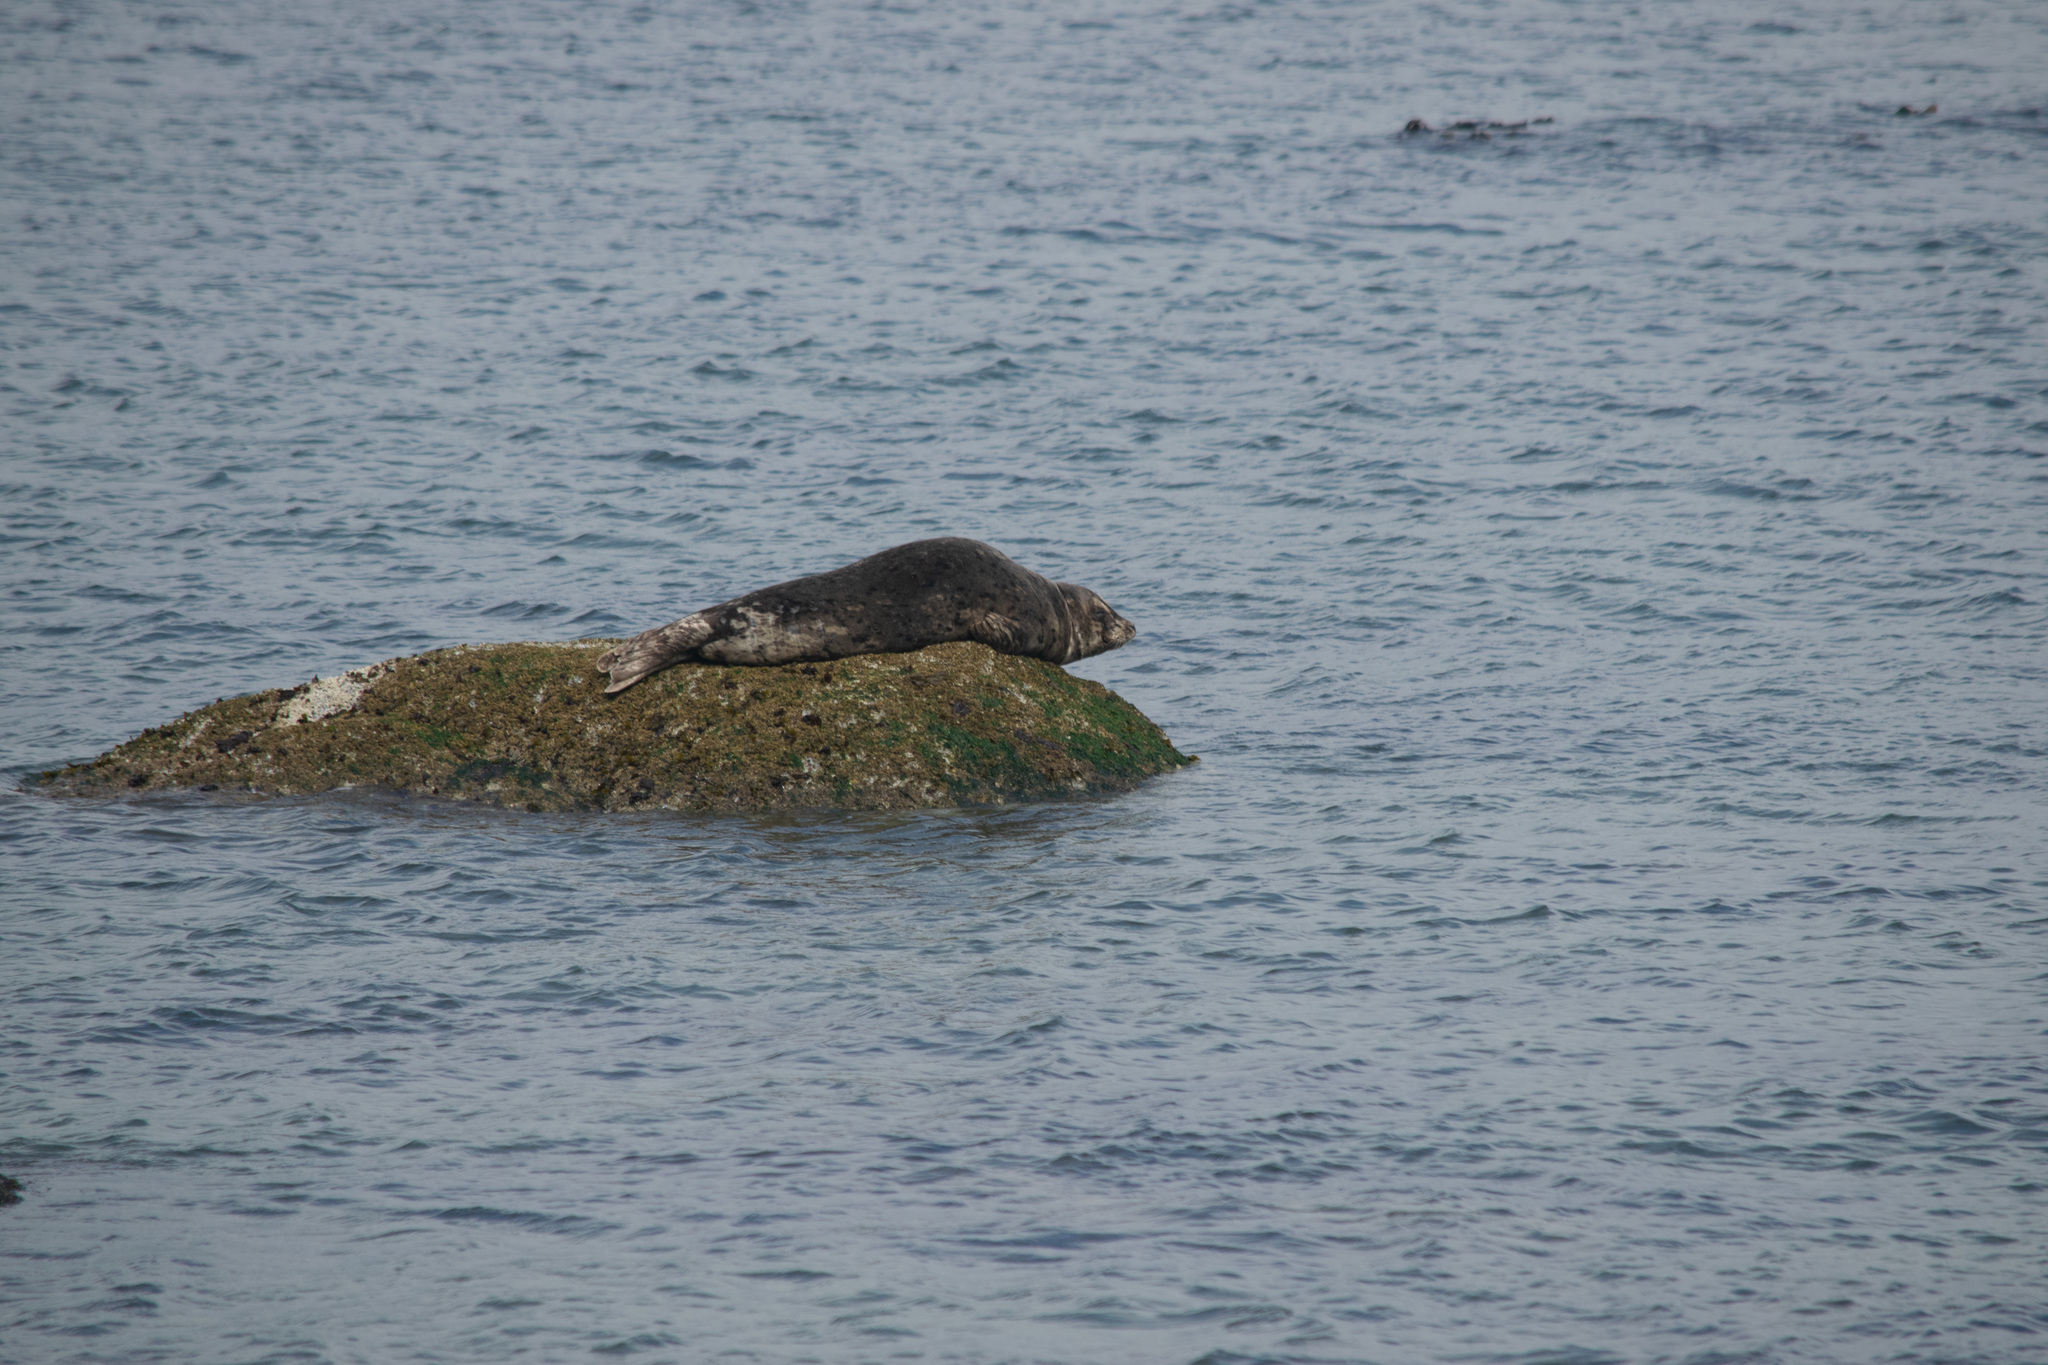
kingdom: Animalia
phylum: Chordata
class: Mammalia
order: Carnivora
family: Phocidae
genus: Phoca
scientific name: Phoca vitulina
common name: Harbor seal
